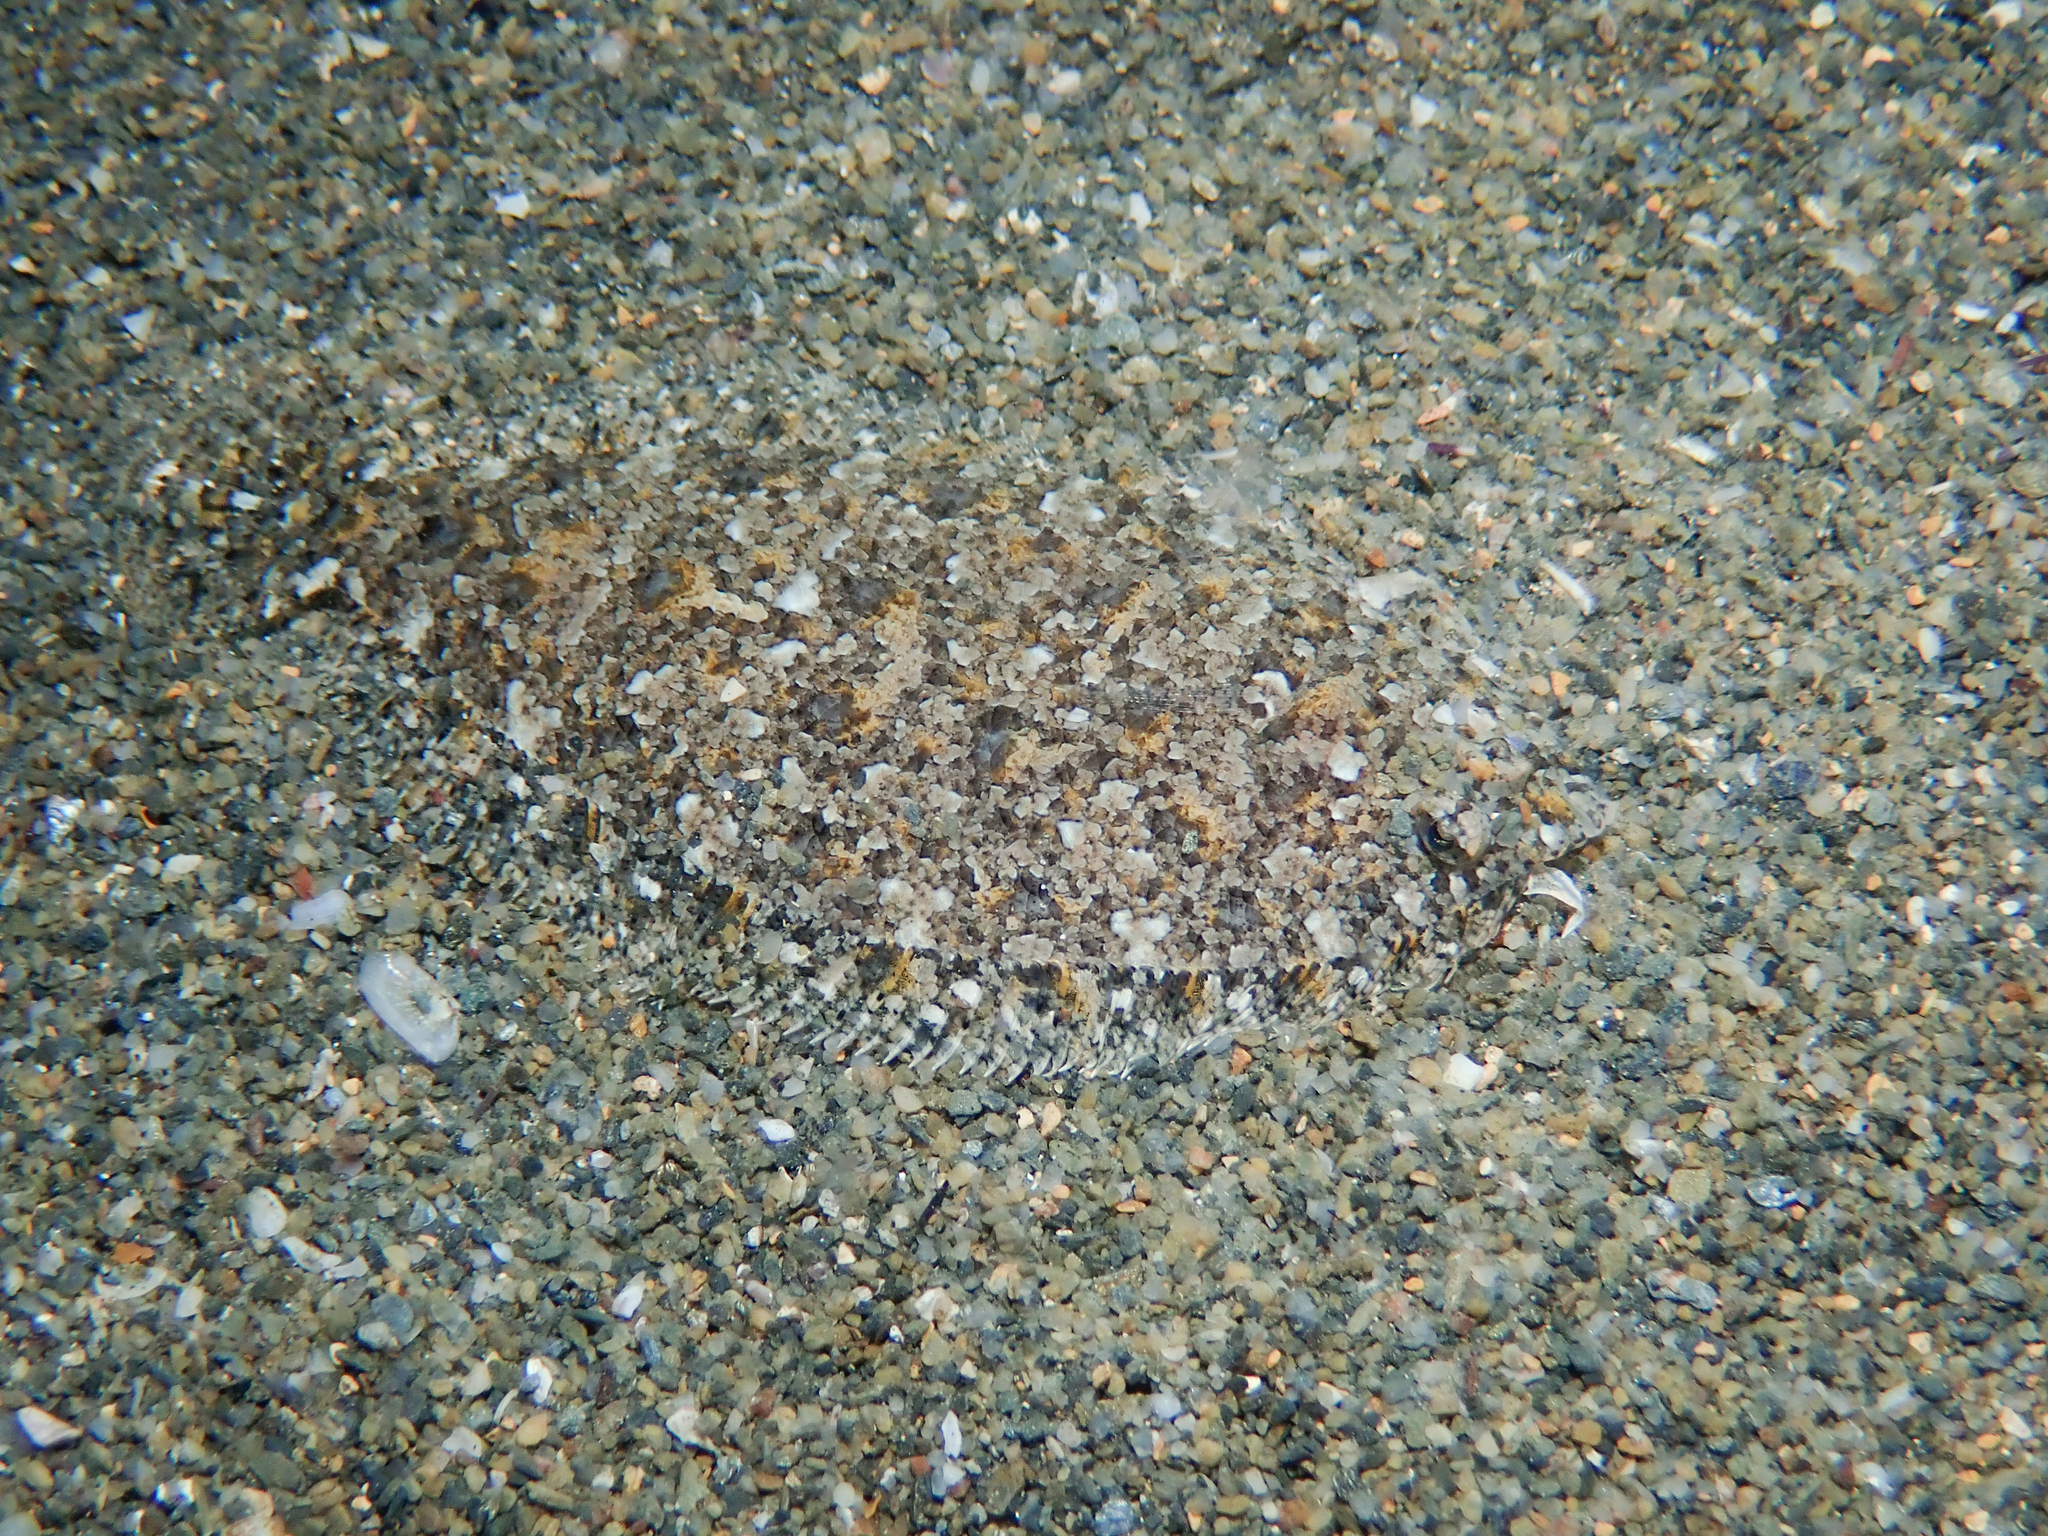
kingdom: Animalia
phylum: Chordata
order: Pleuronectiformes
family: Bothidae
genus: Arnoglossus
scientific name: Arnoglossus thori
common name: Thor's scaldfish
